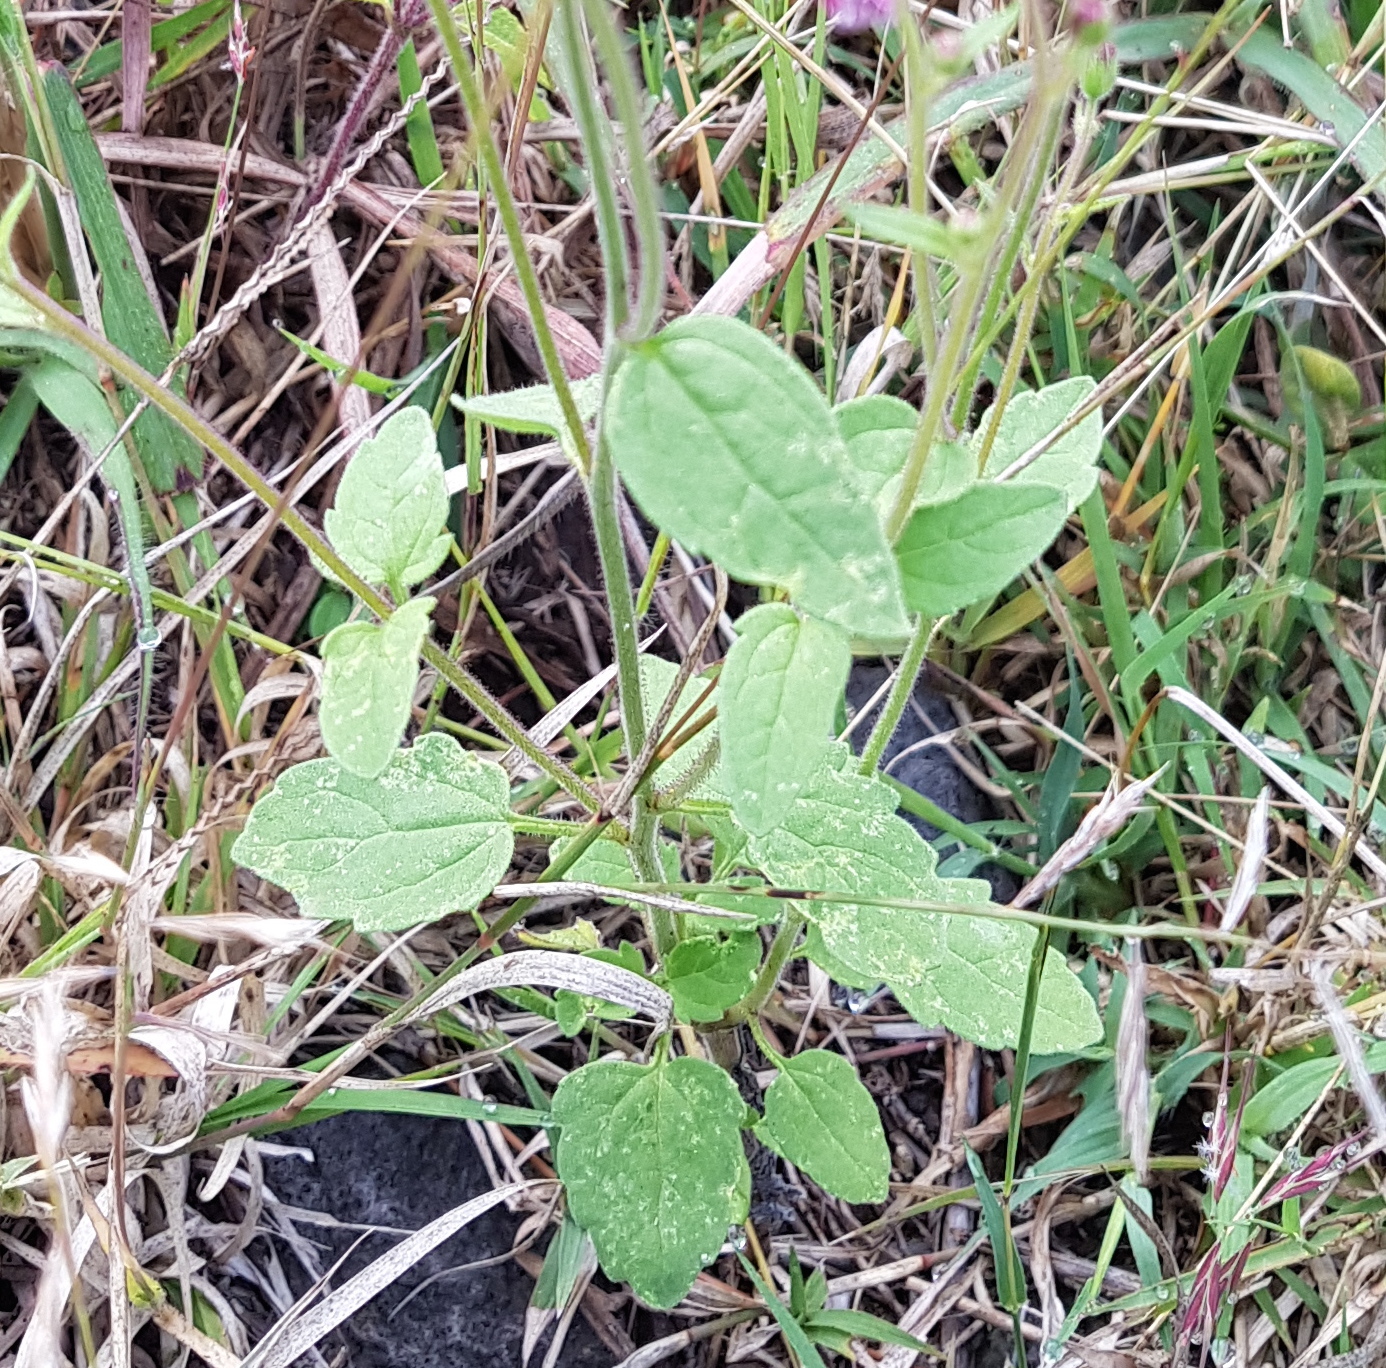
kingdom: Plantae
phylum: Tracheophyta
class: Magnoliopsida
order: Asterales
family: Asteraceae
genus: Florestina
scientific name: Florestina platyphylla
